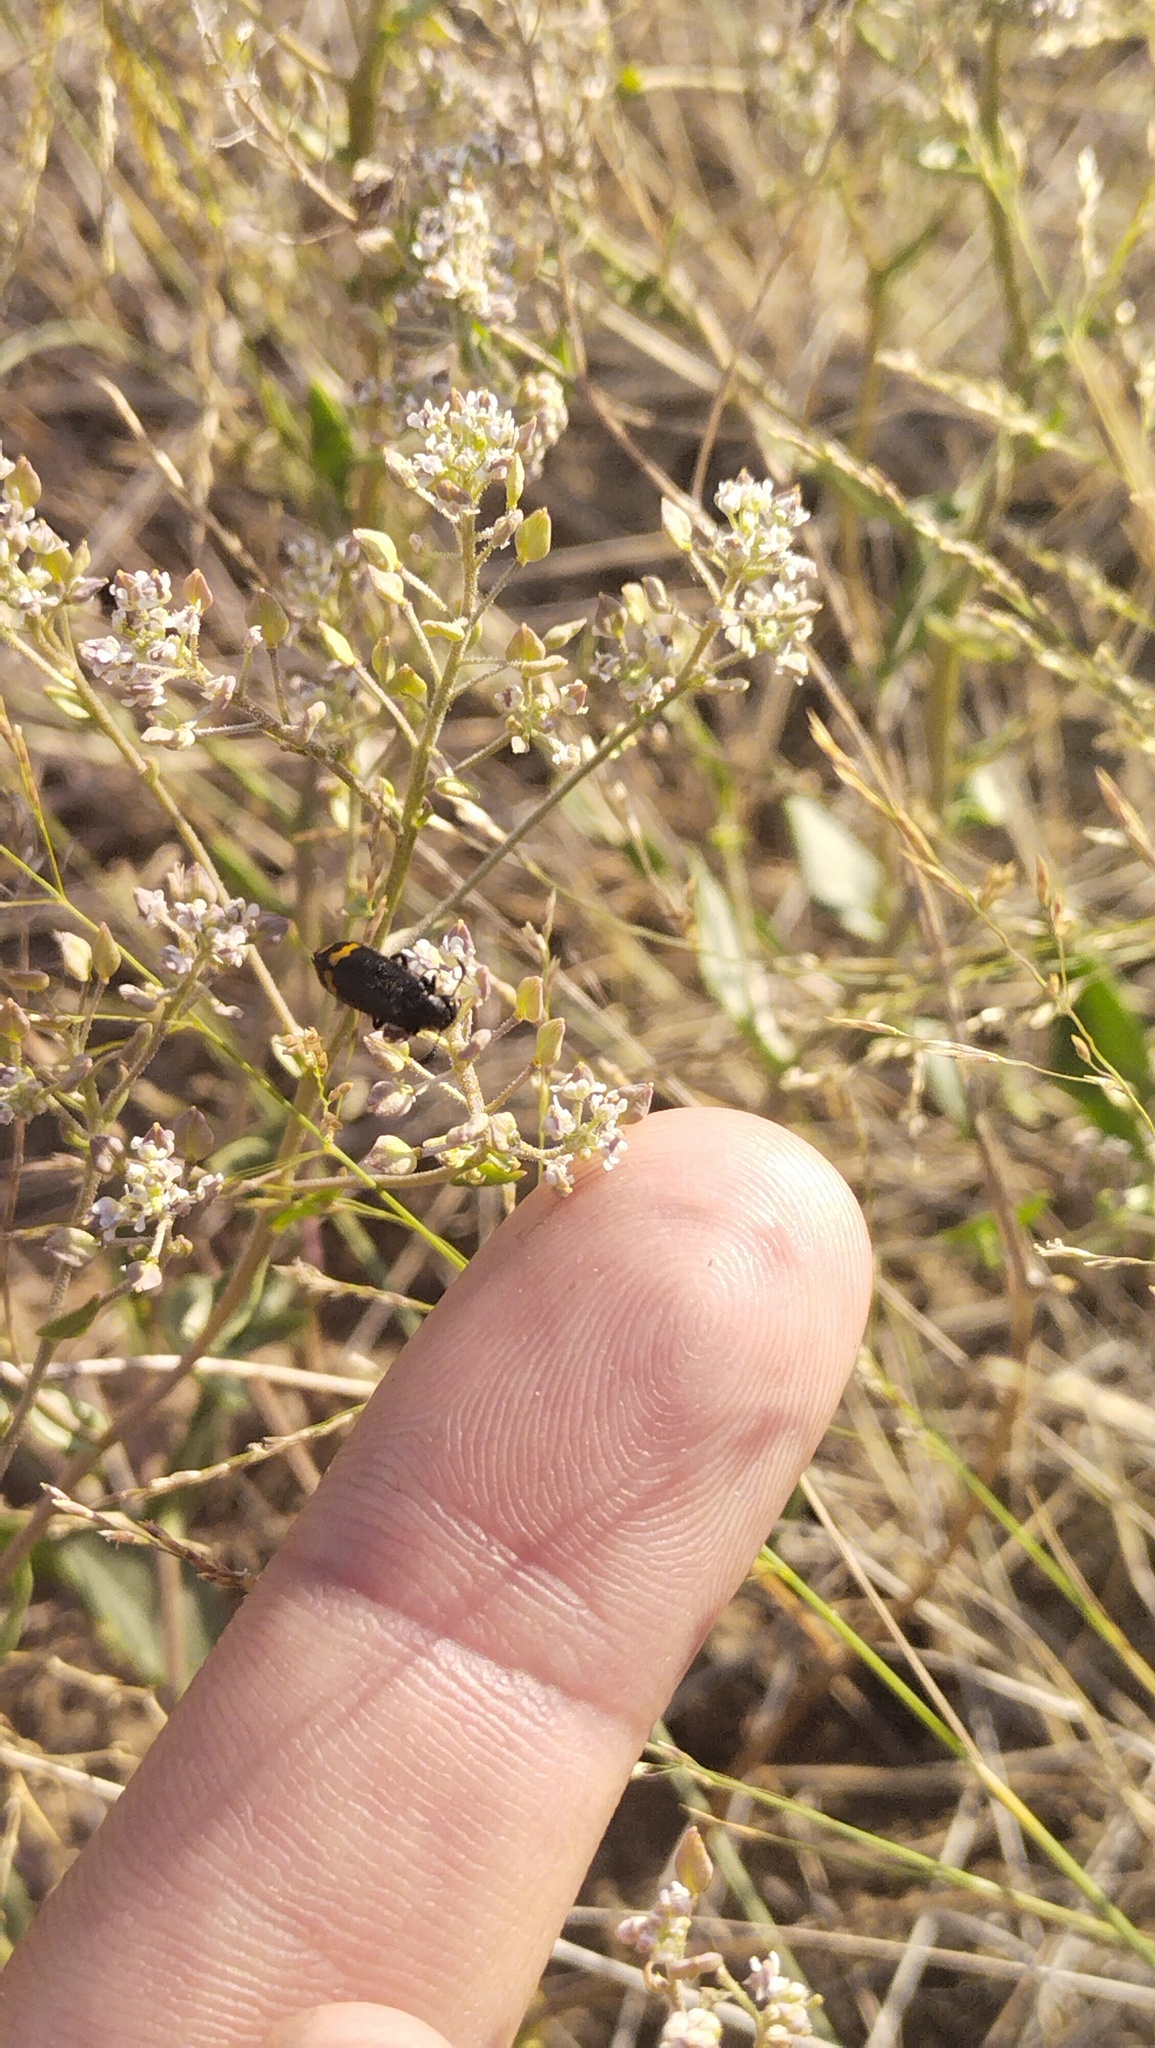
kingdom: Animalia
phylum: Arthropoda
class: Insecta
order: Coleoptera
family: Meloidae
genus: Hycleus
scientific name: Hycleus atratus
